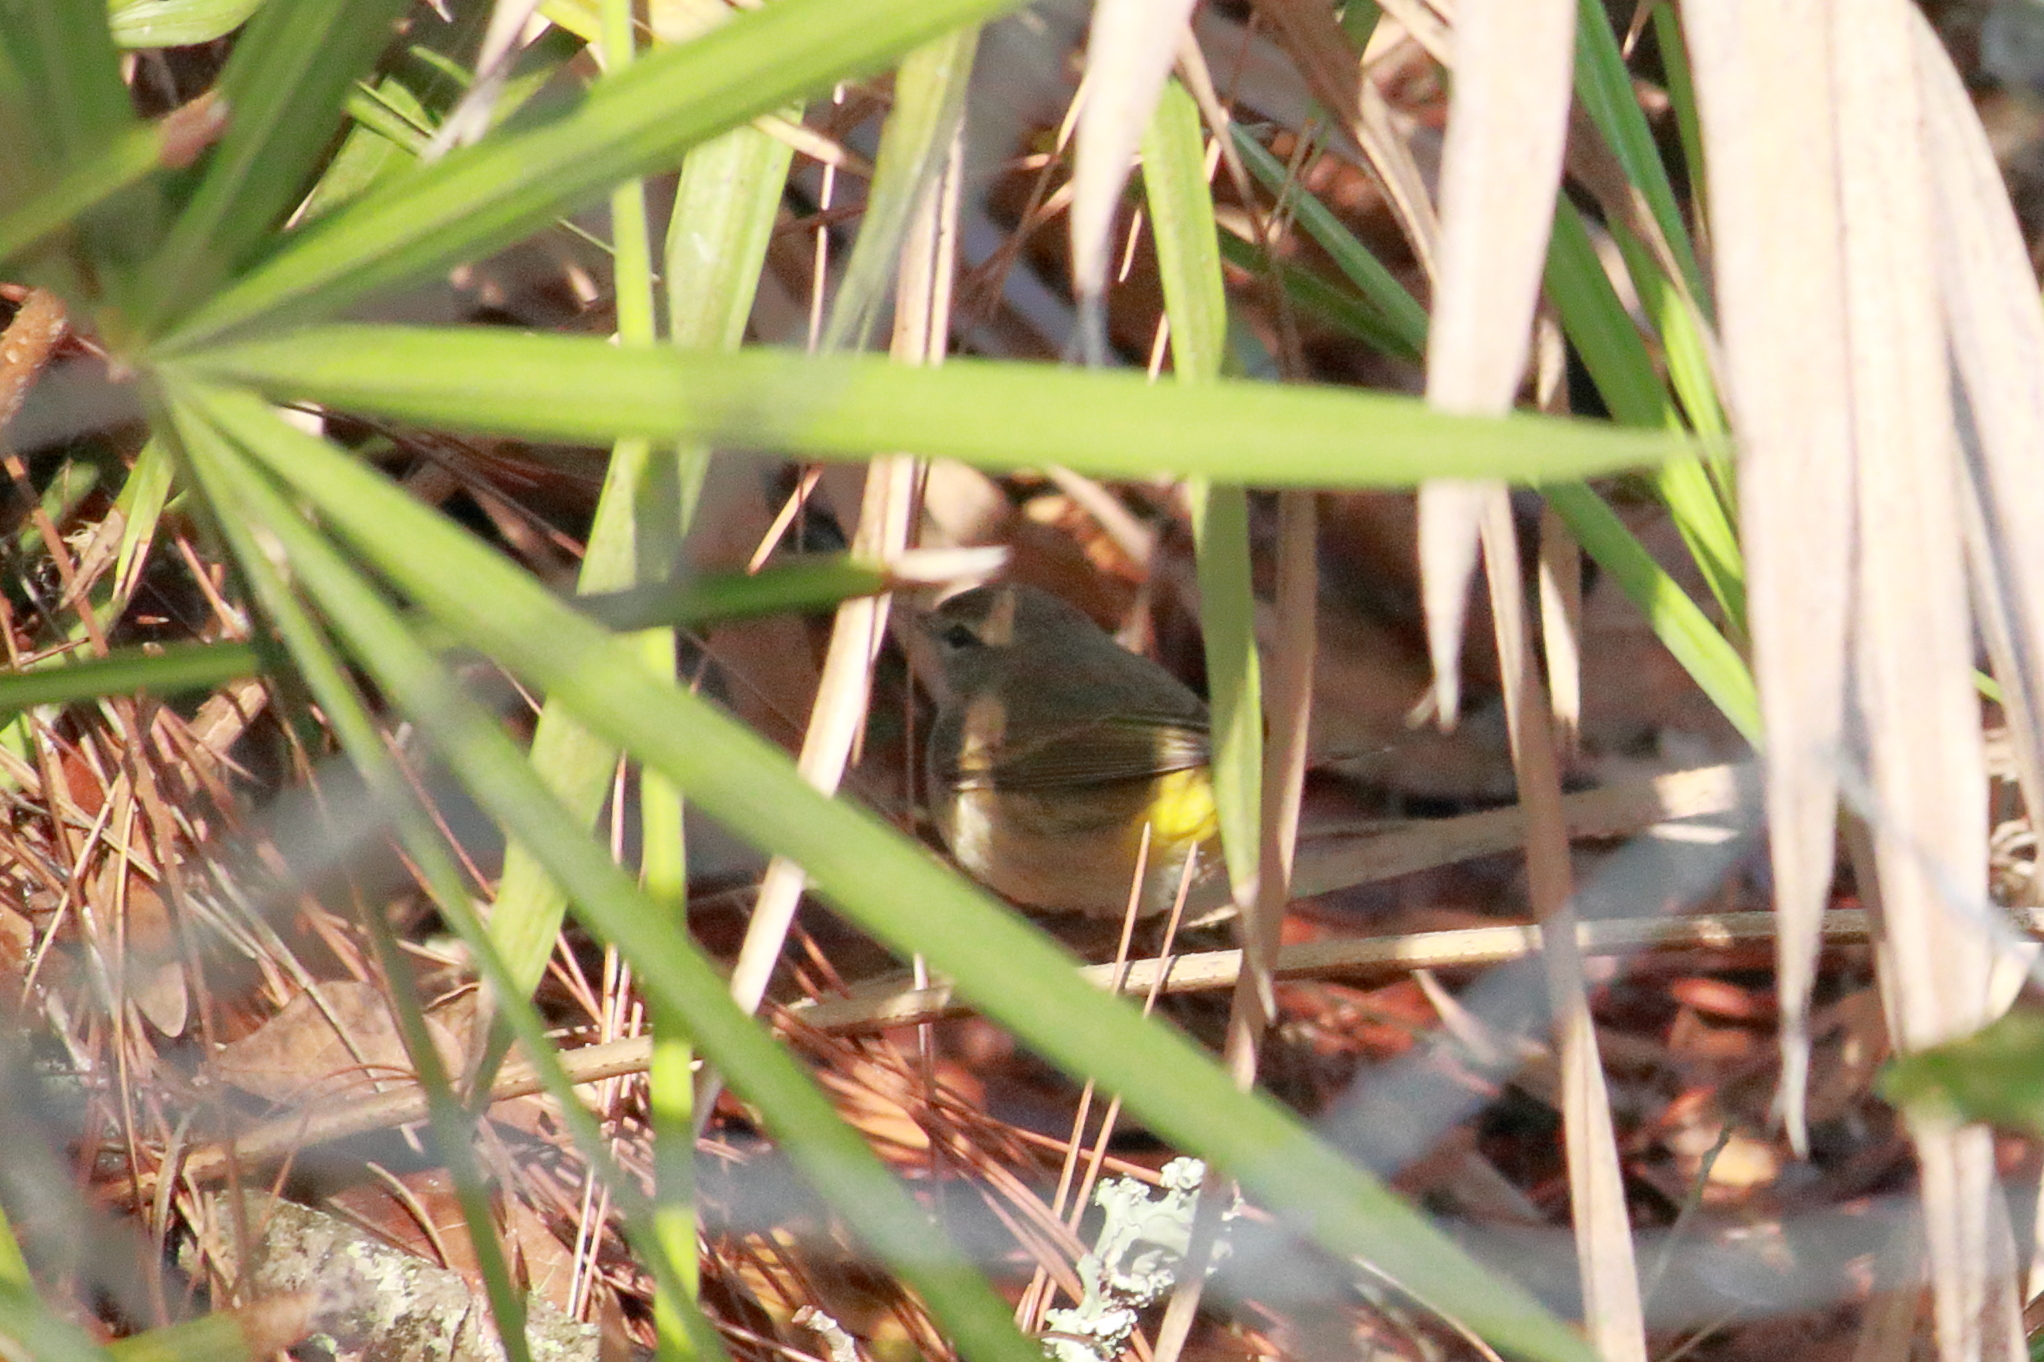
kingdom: Animalia
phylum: Chordata
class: Aves
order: Passeriformes
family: Parulidae
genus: Setophaga
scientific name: Setophaga coronata
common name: Myrtle warbler
